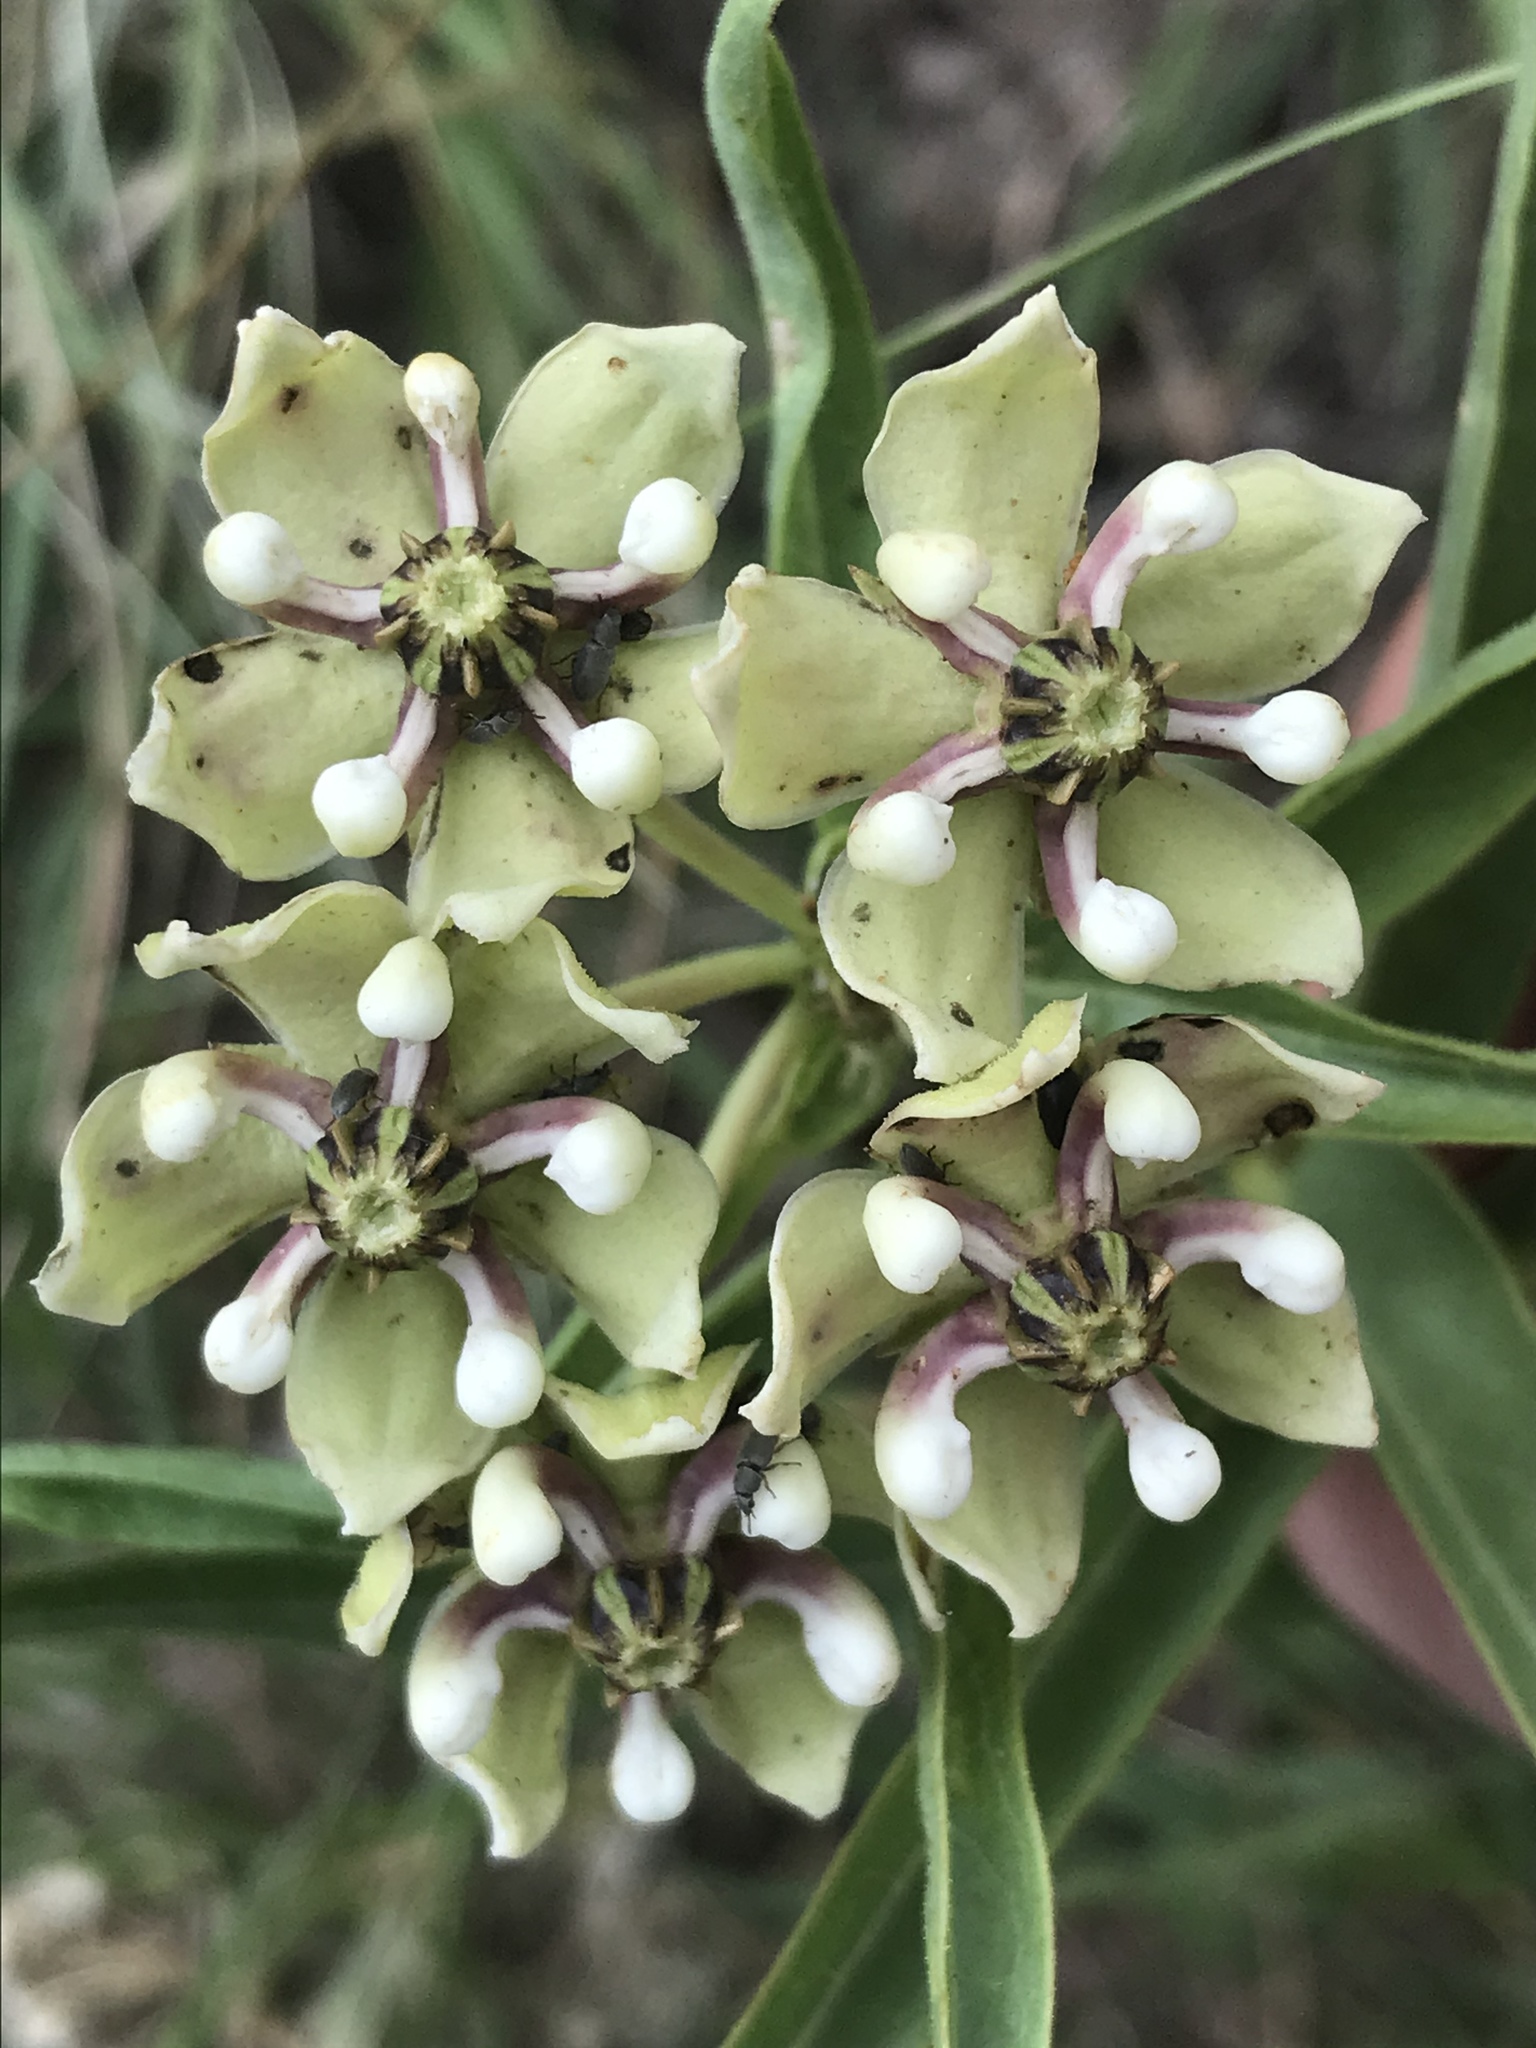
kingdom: Plantae
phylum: Tracheophyta
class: Magnoliopsida
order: Gentianales
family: Apocynaceae
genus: Asclepias
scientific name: Asclepias asperula
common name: Antelope horns
